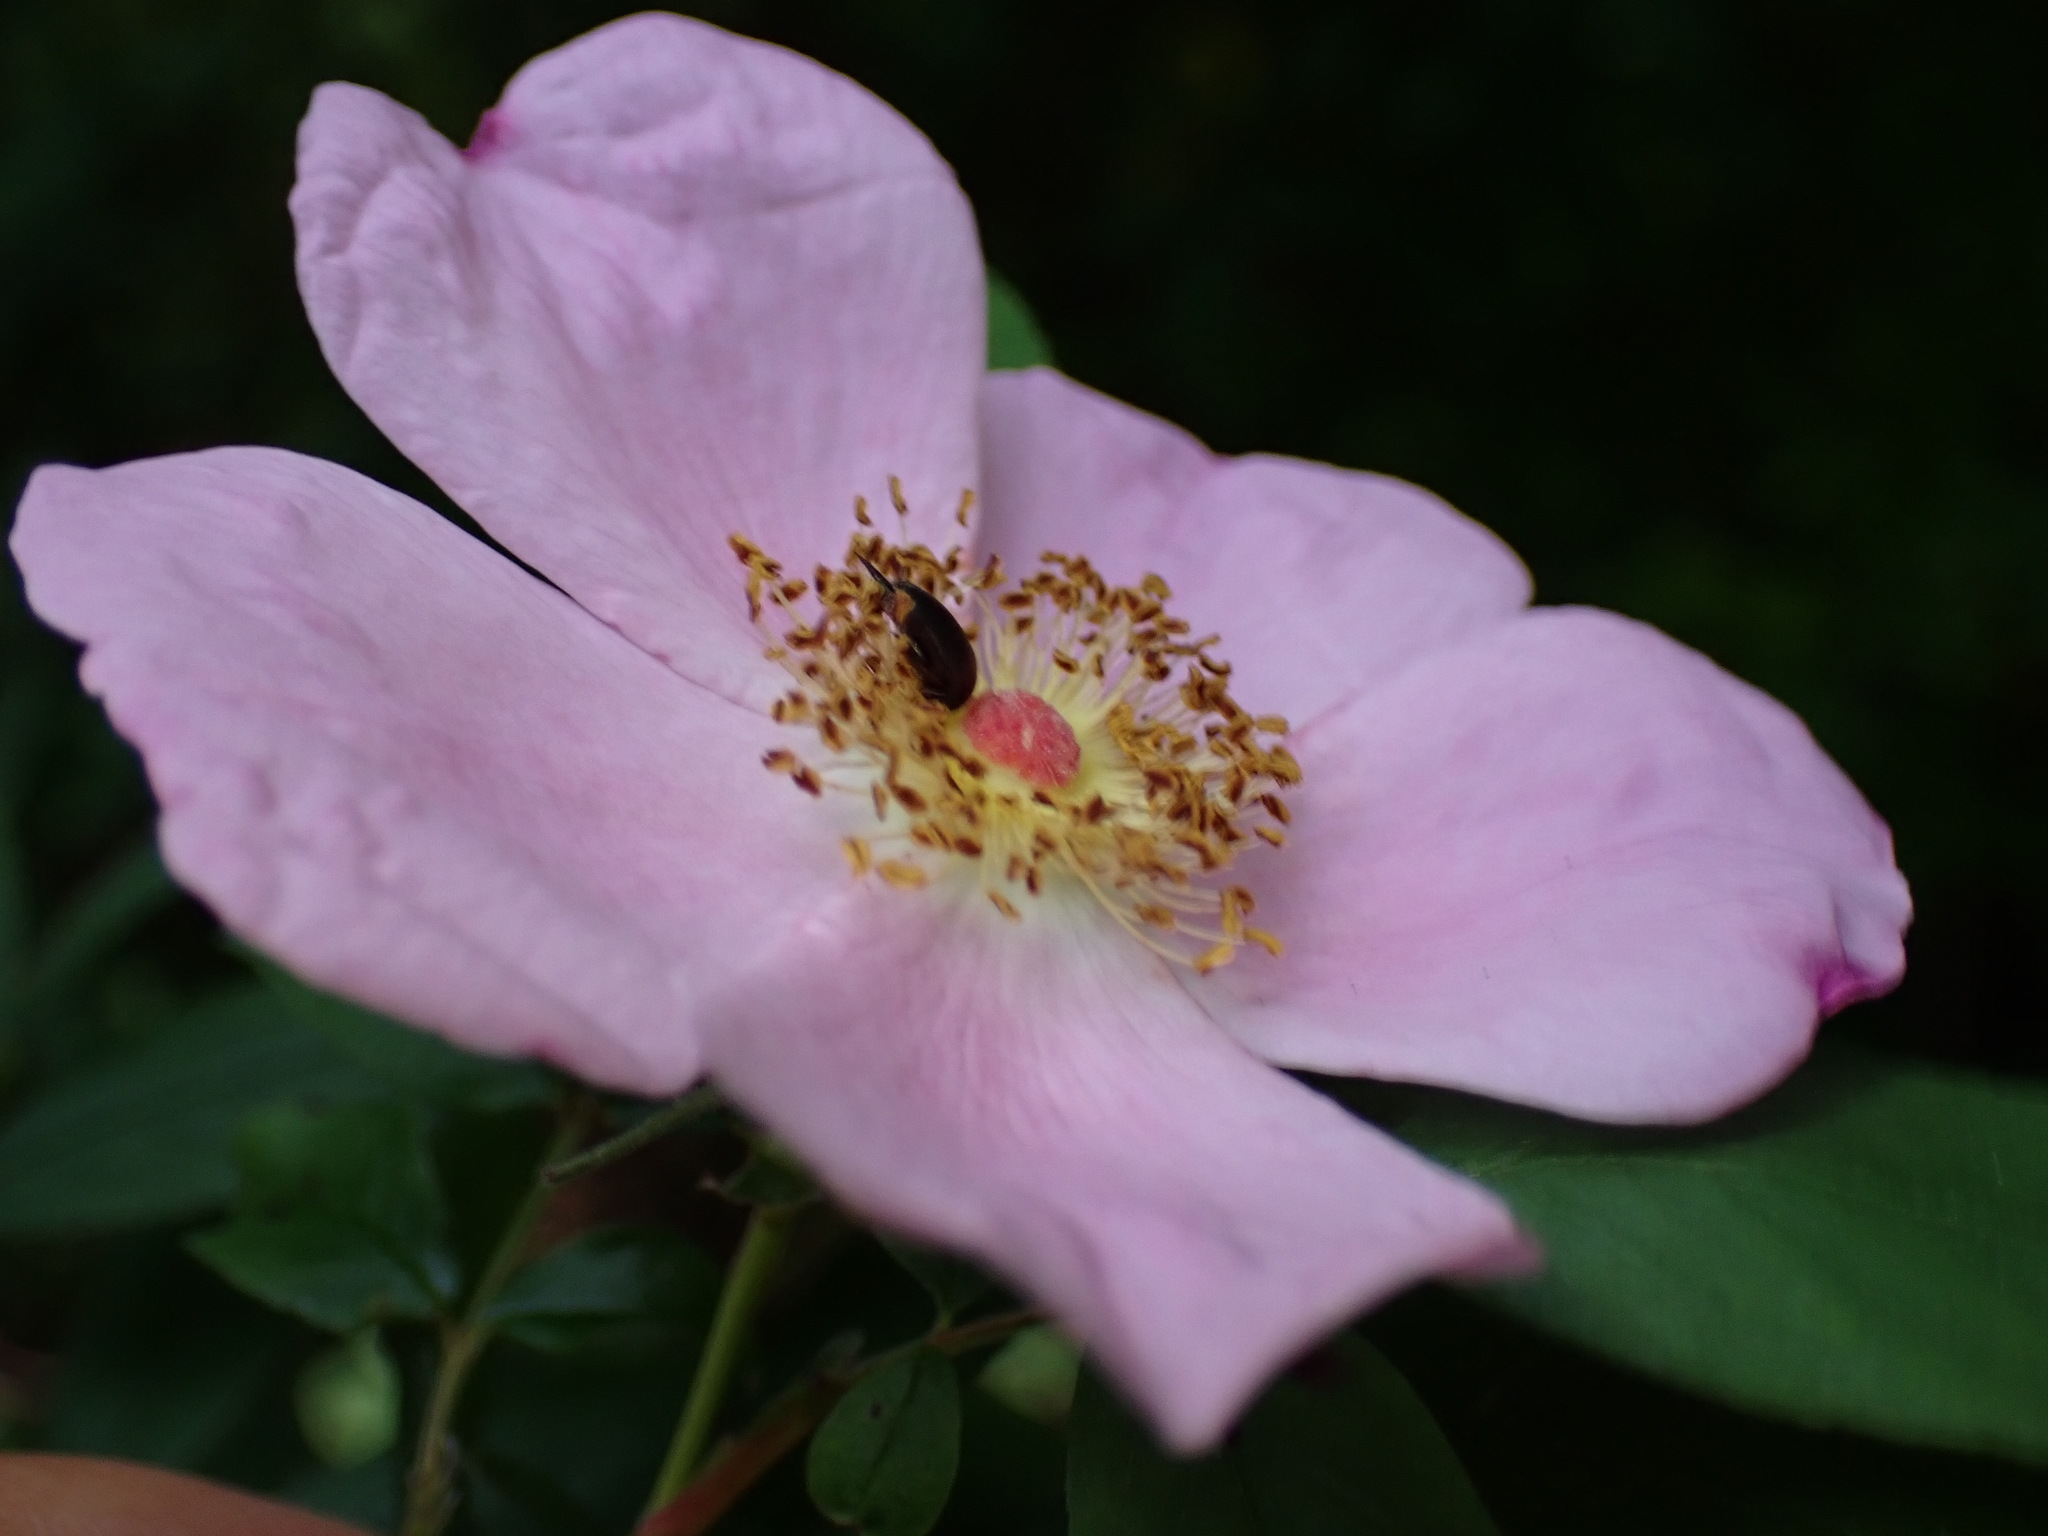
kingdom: Plantae
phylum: Tracheophyta
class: Magnoliopsida
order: Rosales
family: Rosaceae
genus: Rosa
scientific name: Rosa palustris
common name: Swamp rose
